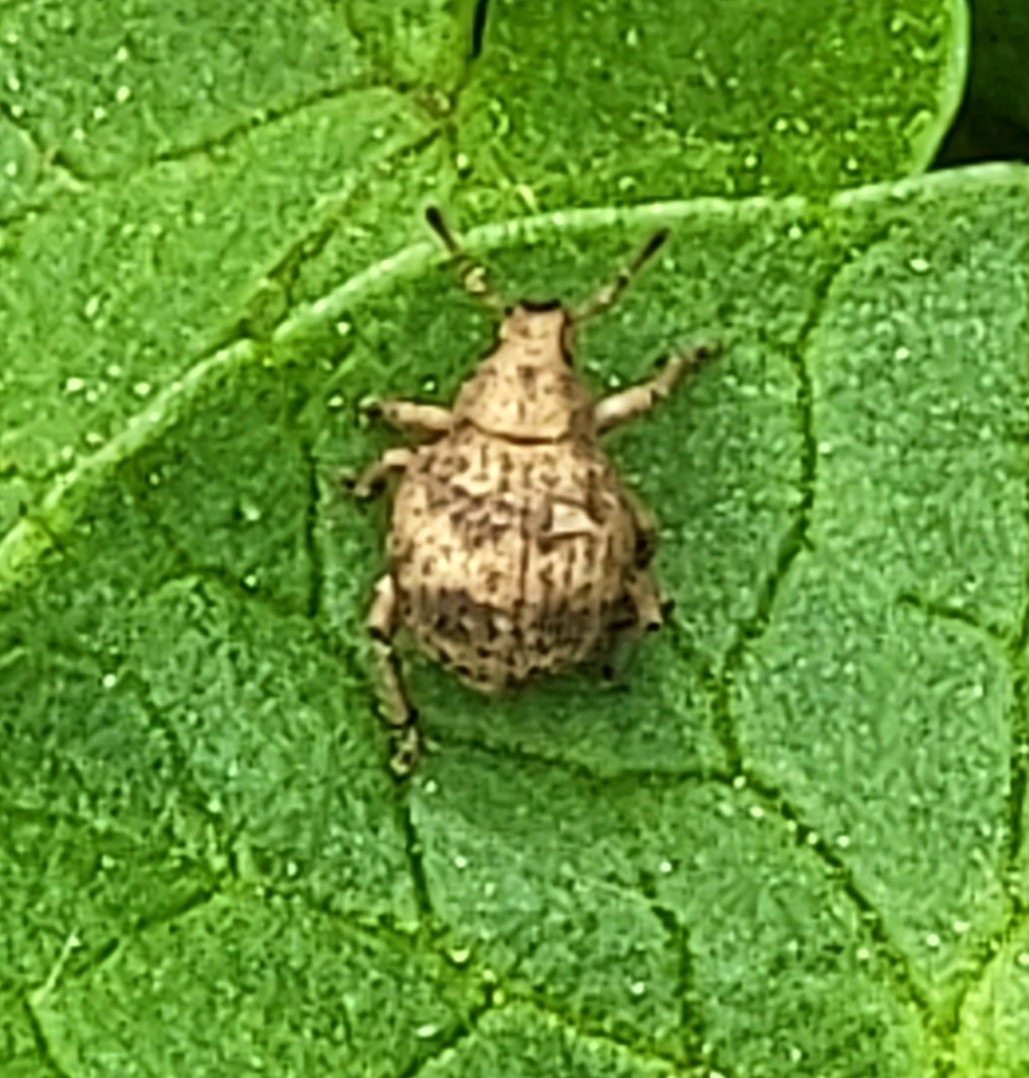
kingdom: Animalia
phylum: Arthropoda
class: Insecta
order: Coleoptera
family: Curculionidae
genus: Pseudocneorhinus
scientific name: Pseudocneorhinus bifasciatus
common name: Two-banded japanese weevil
